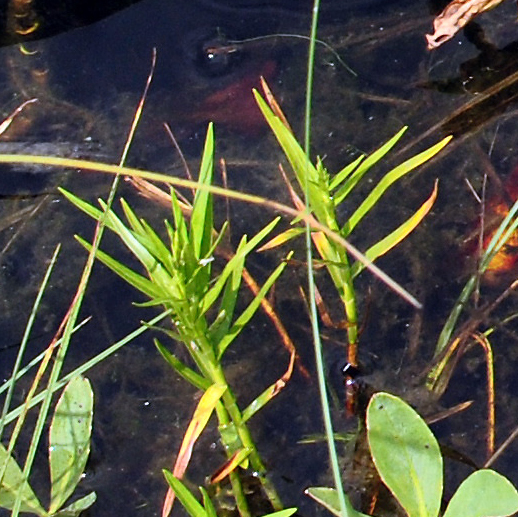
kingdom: Plantae
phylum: Tracheophyta
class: Liliopsida
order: Poales
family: Cyperaceae
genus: Dulichium
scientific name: Dulichium arundinaceum
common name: Three-way sedge
